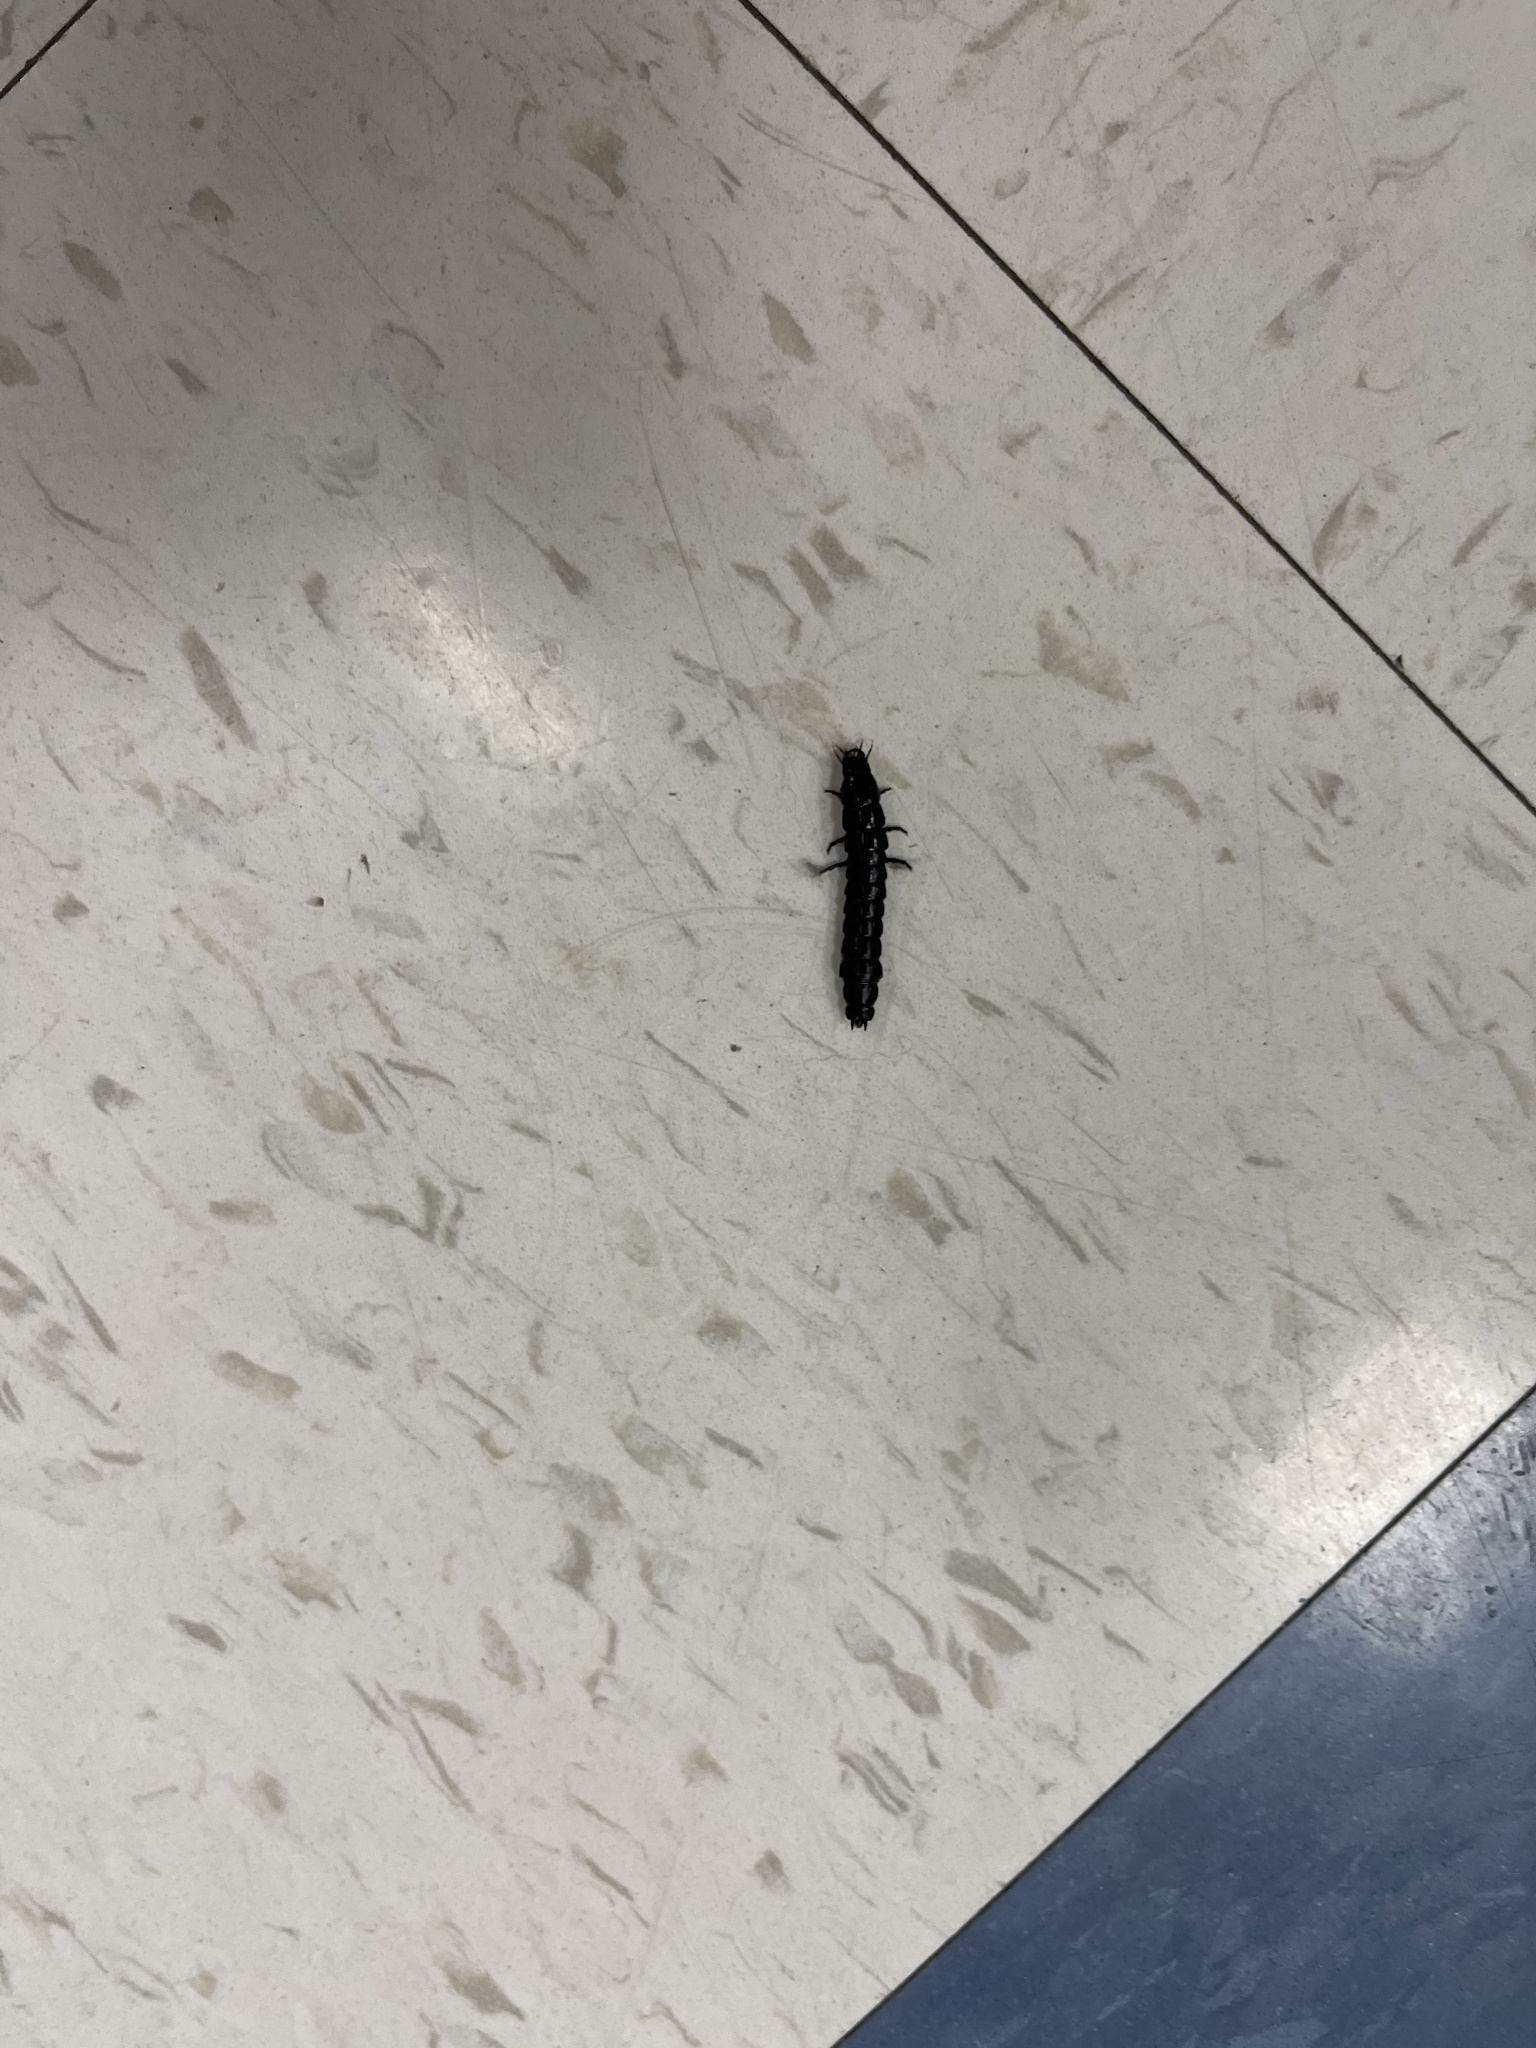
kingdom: Animalia
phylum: Arthropoda
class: Insecta
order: Coleoptera
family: Carabidae
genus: Carabus
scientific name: Carabus
